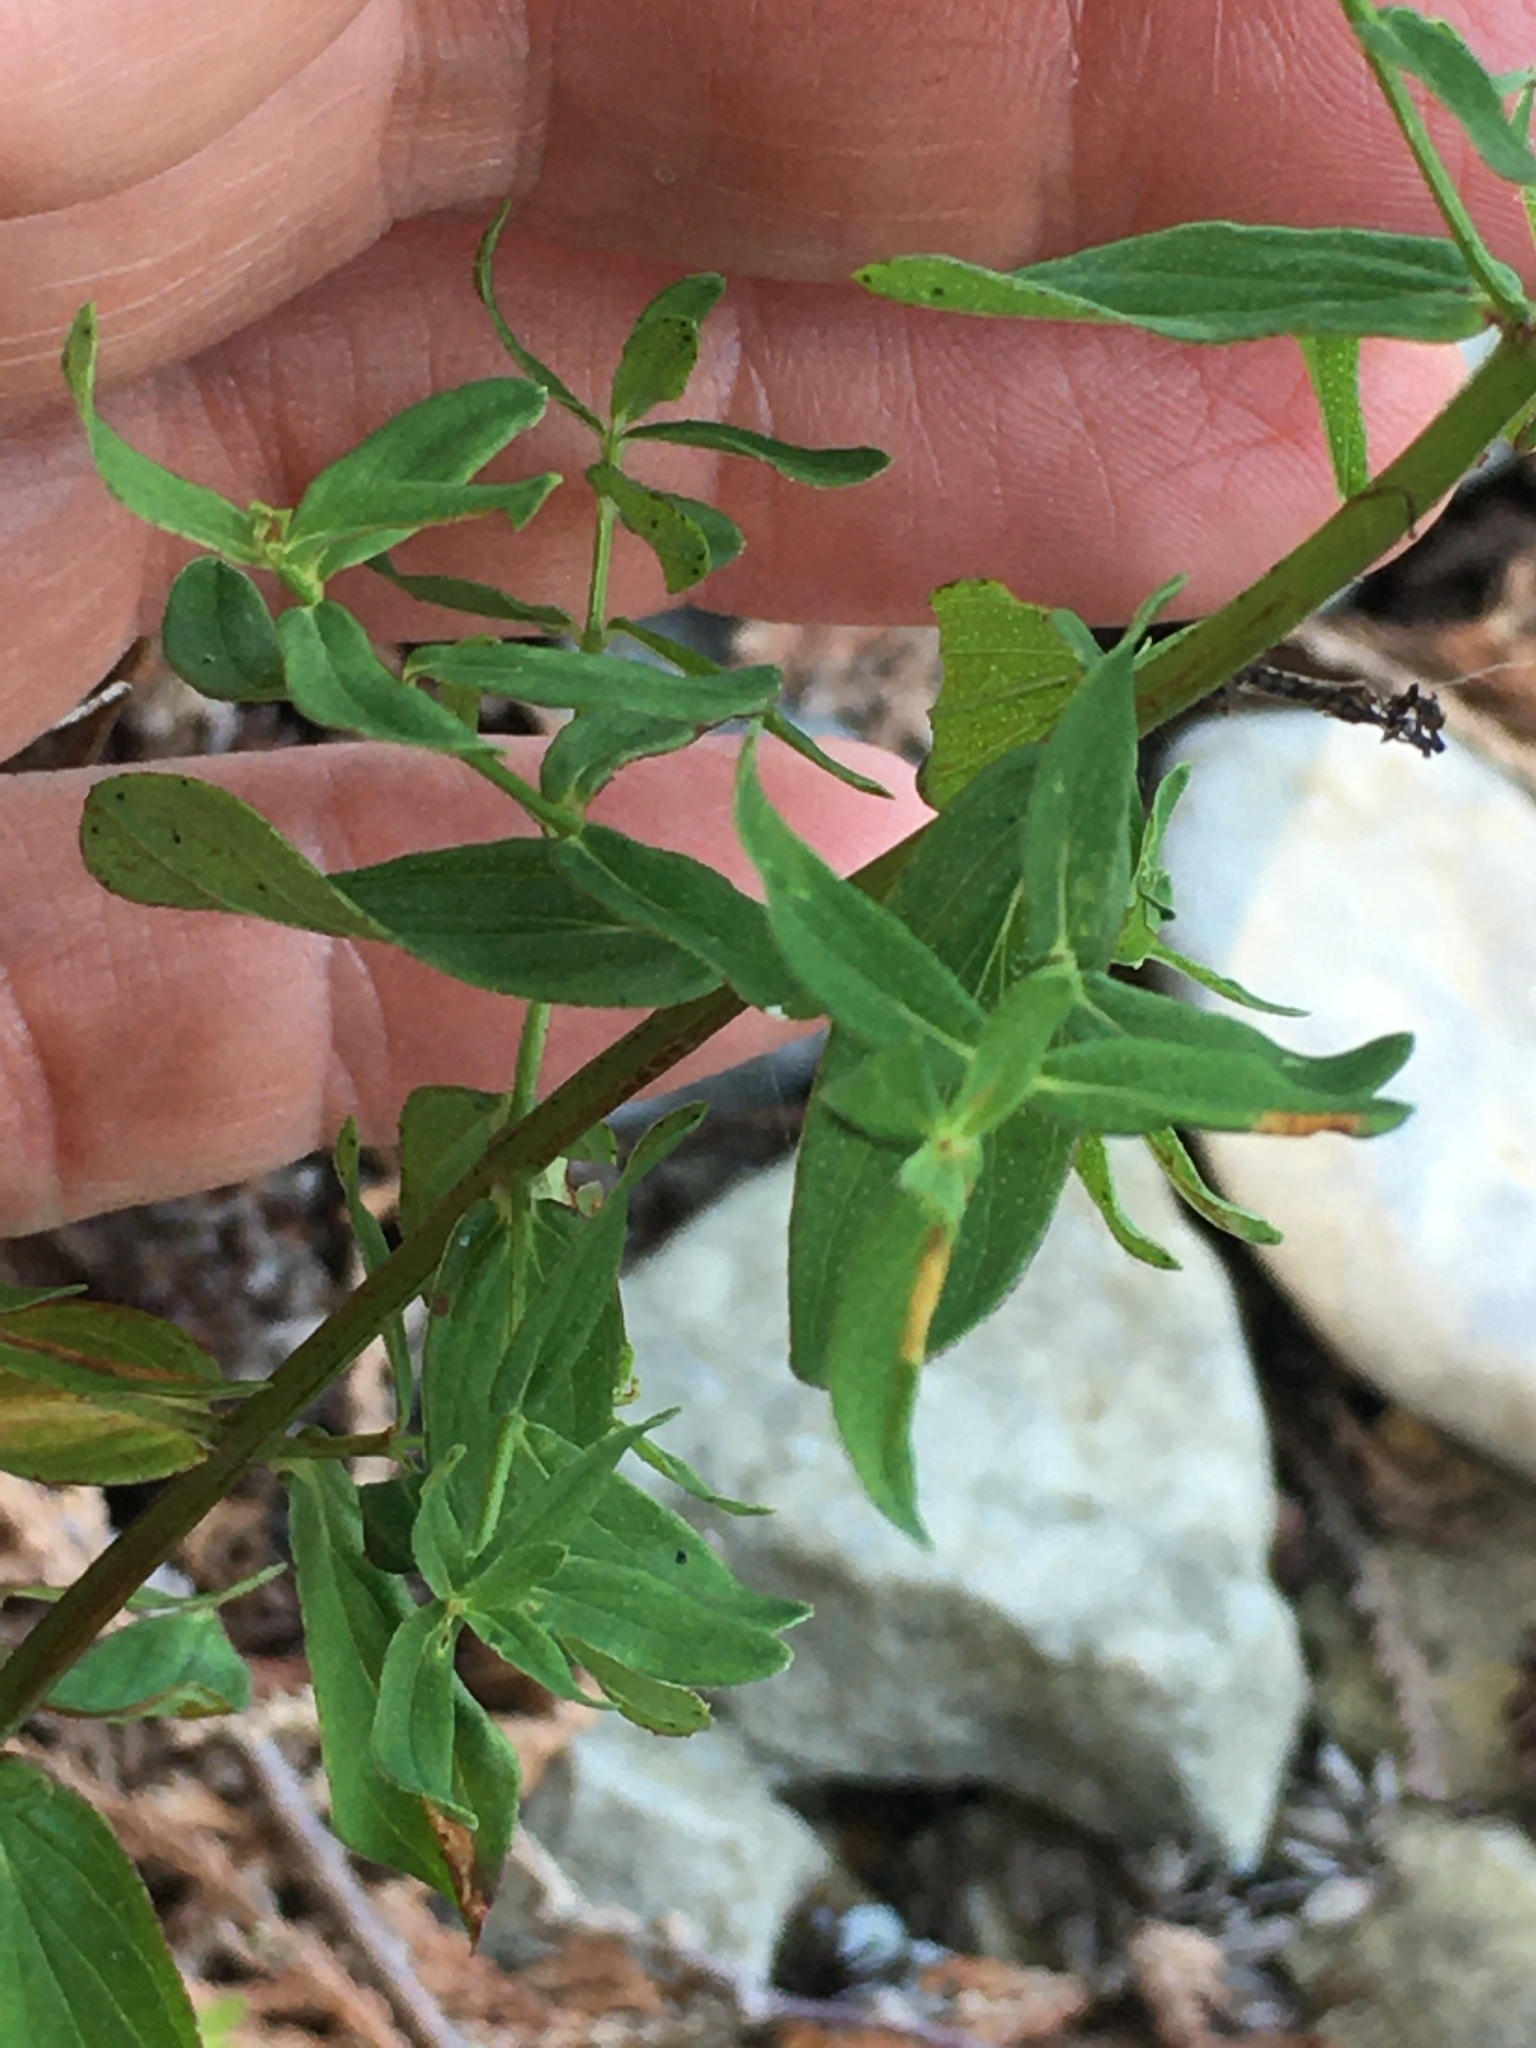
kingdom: Plantae
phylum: Tracheophyta
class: Magnoliopsida
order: Malpighiales
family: Hypericaceae
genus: Hypericum
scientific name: Hypericum perforatum
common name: Common st. johnswort
